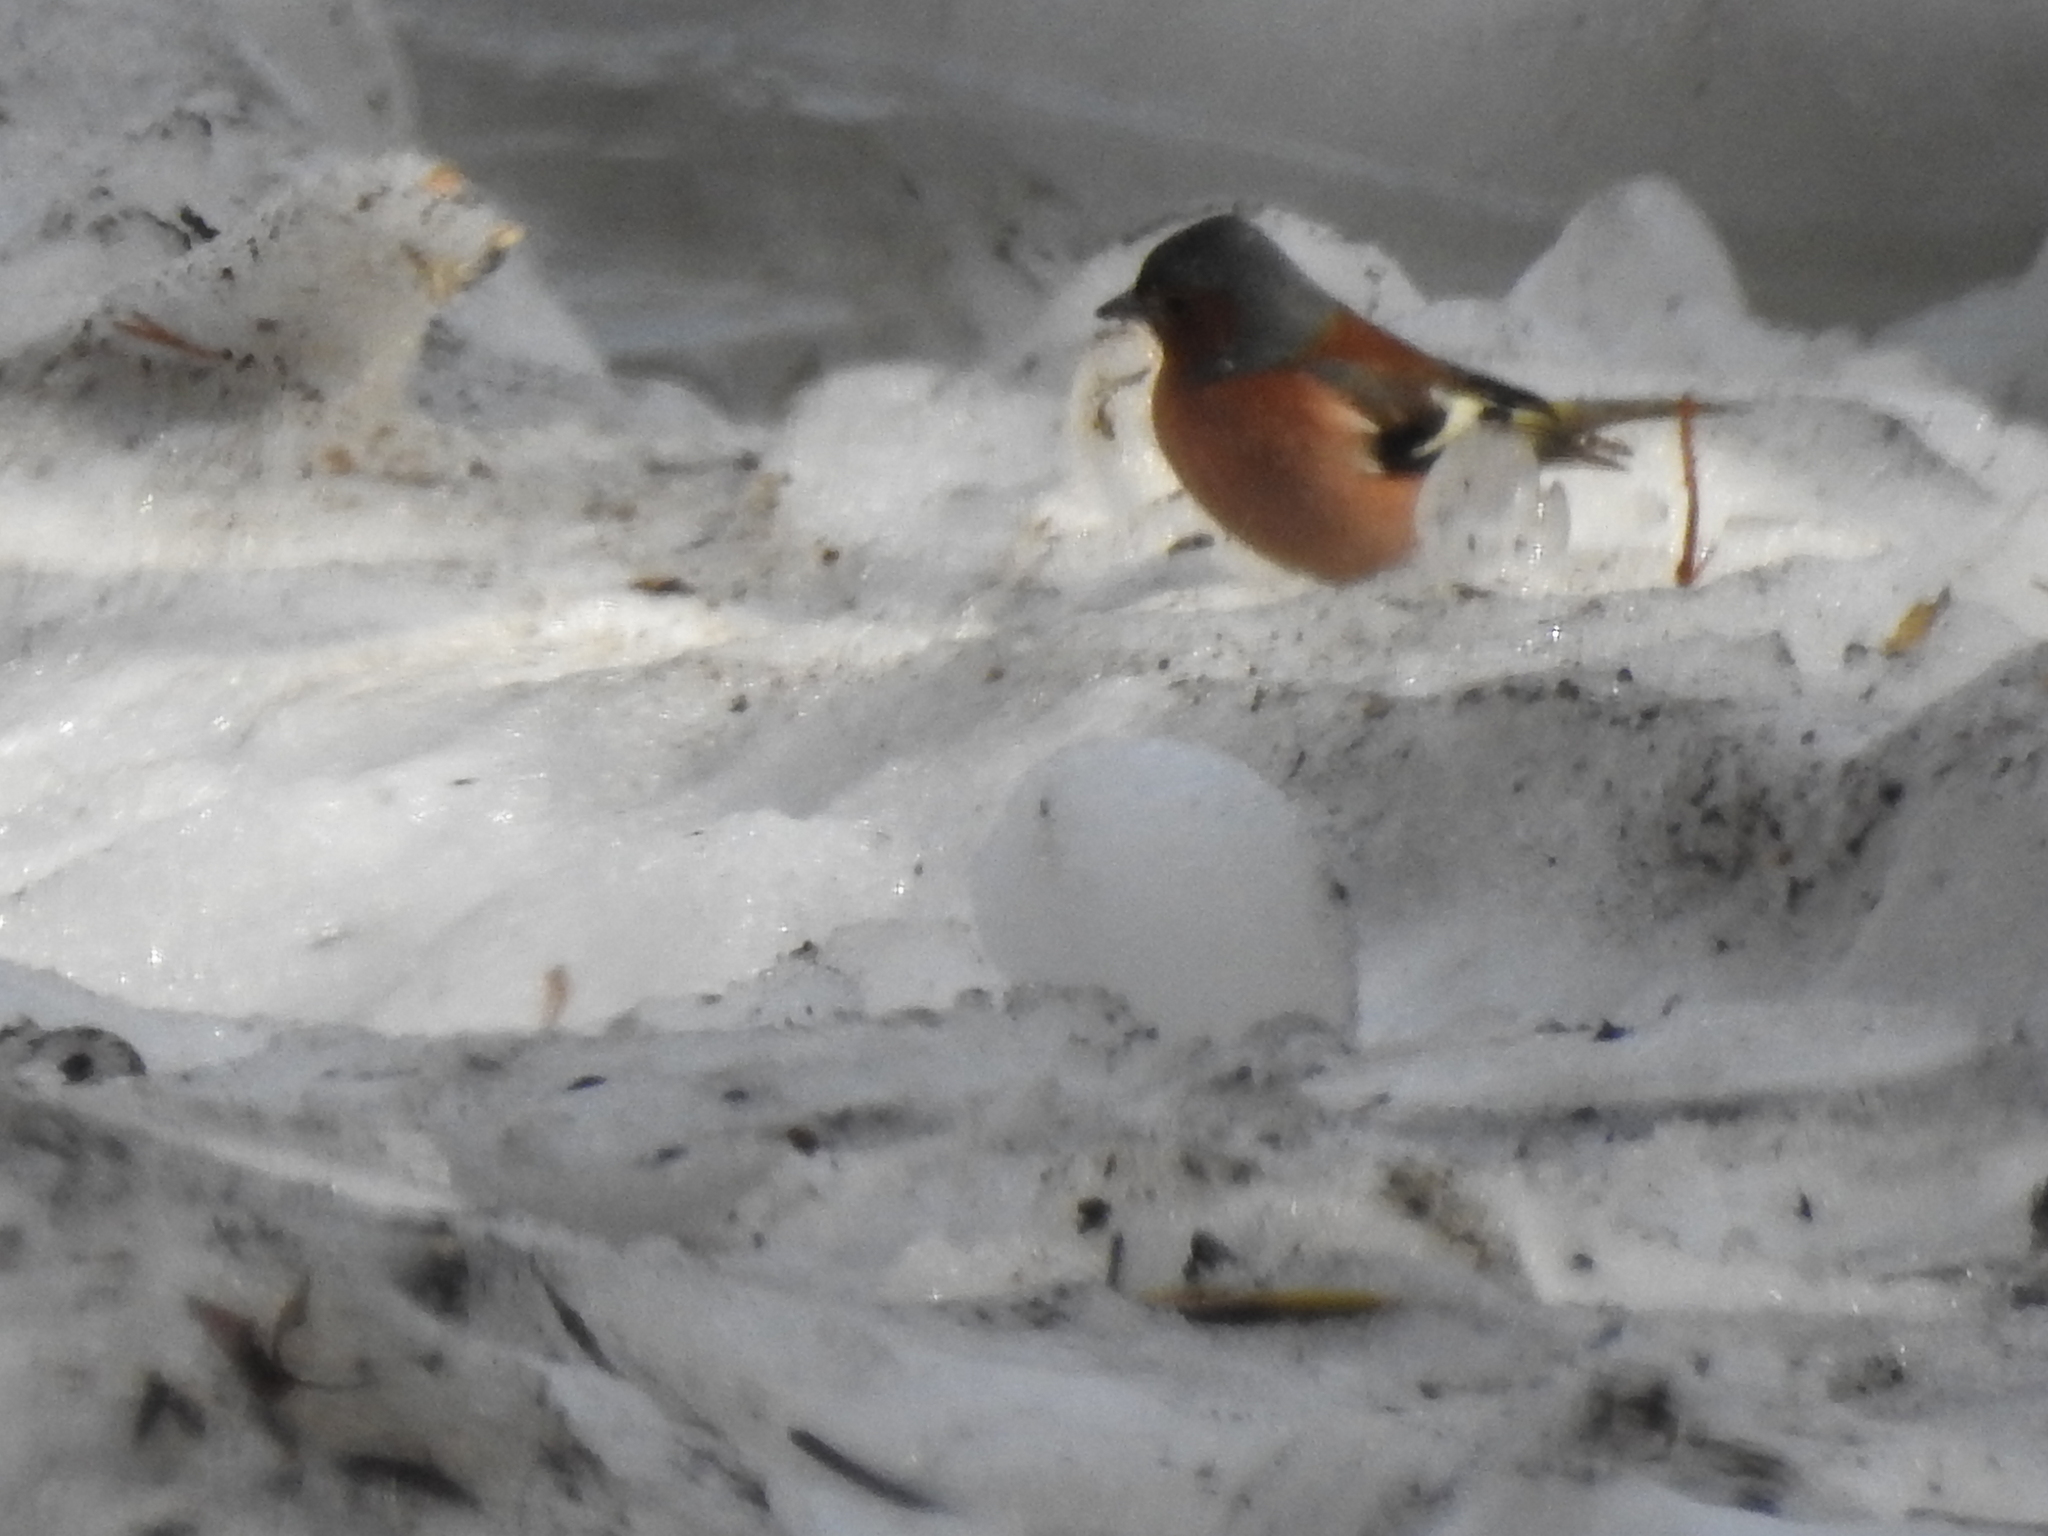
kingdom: Animalia
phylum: Chordata
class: Aves
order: Passeriformes
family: Fringillidae
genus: Fringilla
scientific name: Fringilla coelebs
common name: Common chaffinch
